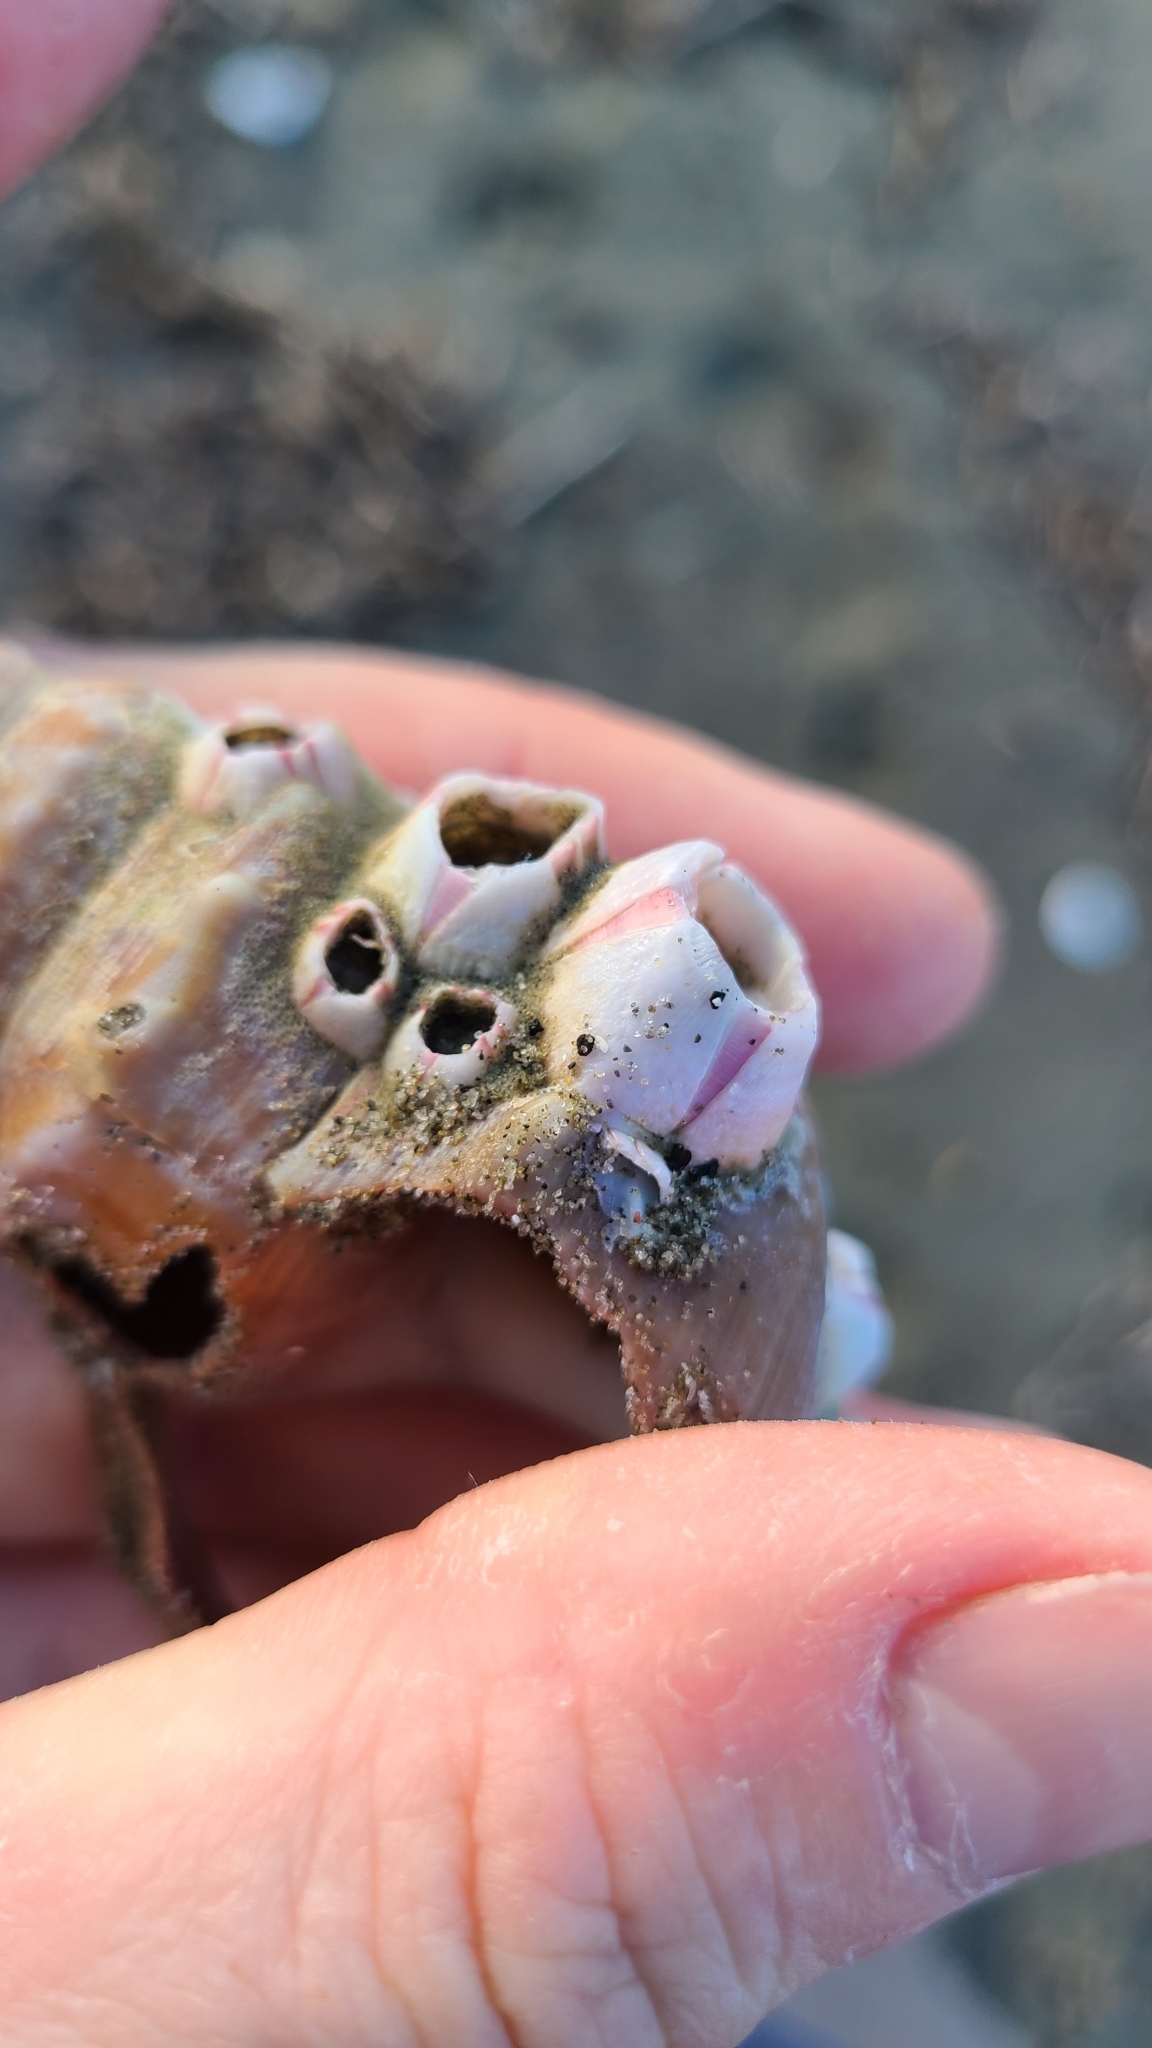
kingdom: Animalia
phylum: Arthropoda
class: Maxillopoda
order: Sessilia
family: Balanidae
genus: Notomegabalanus
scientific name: Notomegabalanus decorus
